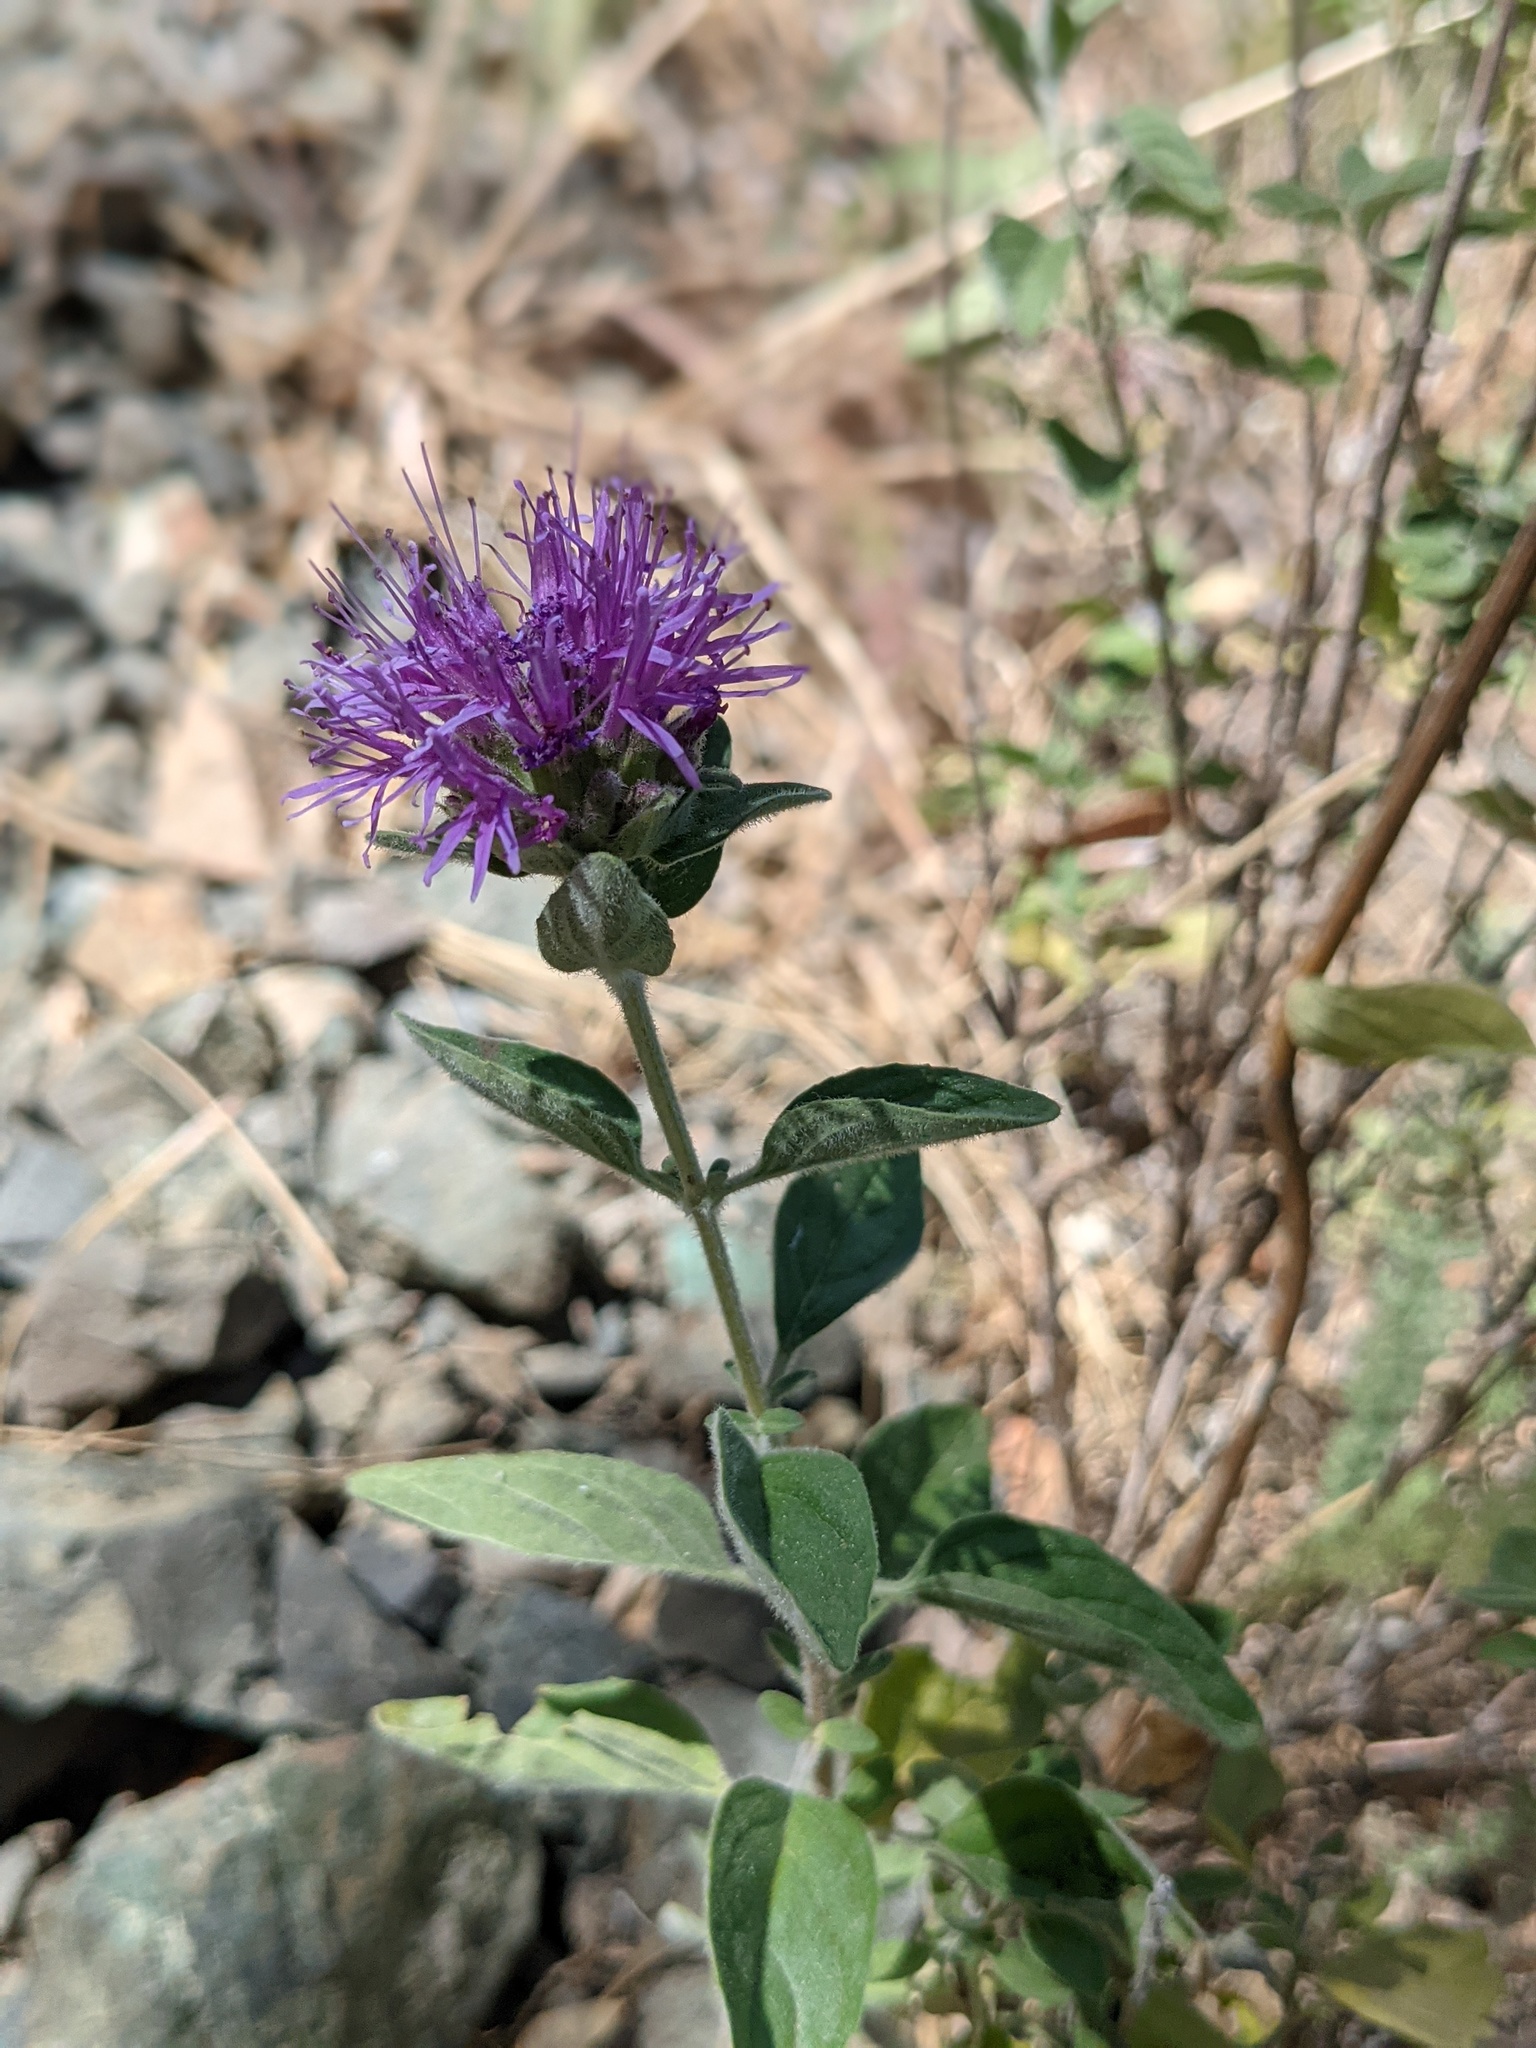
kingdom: Plantae
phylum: Tracheophyta
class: Magnoliopsida
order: Lamiales
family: Lamiaceae
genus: Monardella
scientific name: Monardella odoratissima
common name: Pacific monardella
